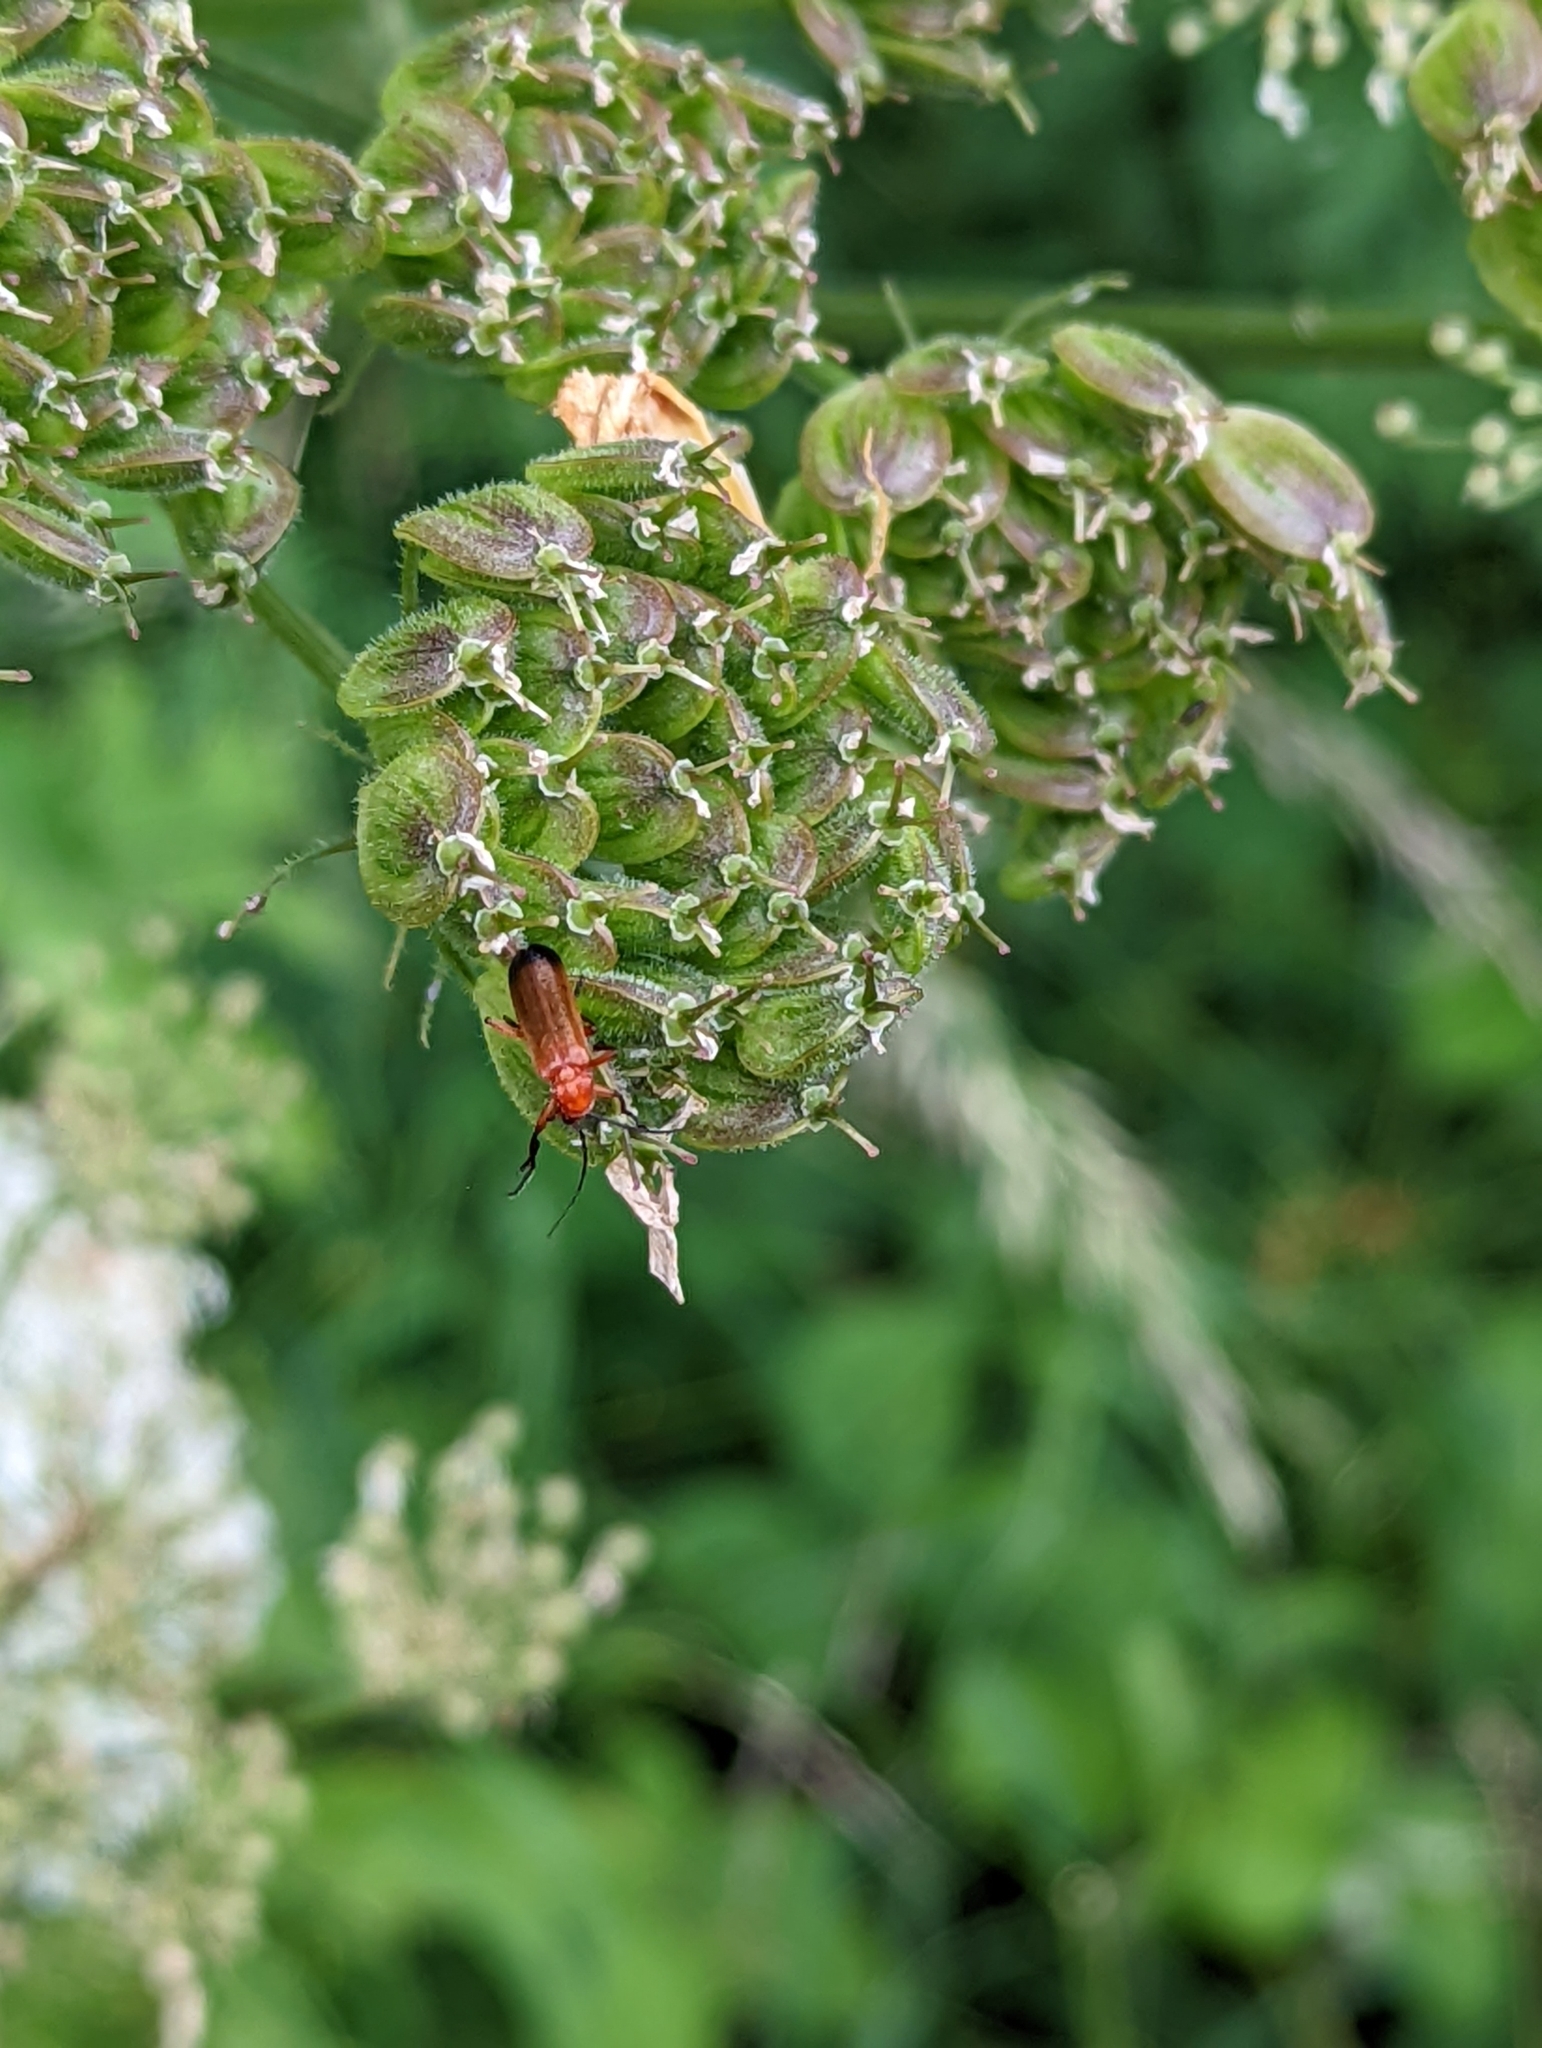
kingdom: Animalia
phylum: Arthropoda
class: Insecta
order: Coleoptera
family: Cantharidae
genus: Rhagonycha
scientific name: Rhagonycha fulva
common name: Common red soldier beetle
